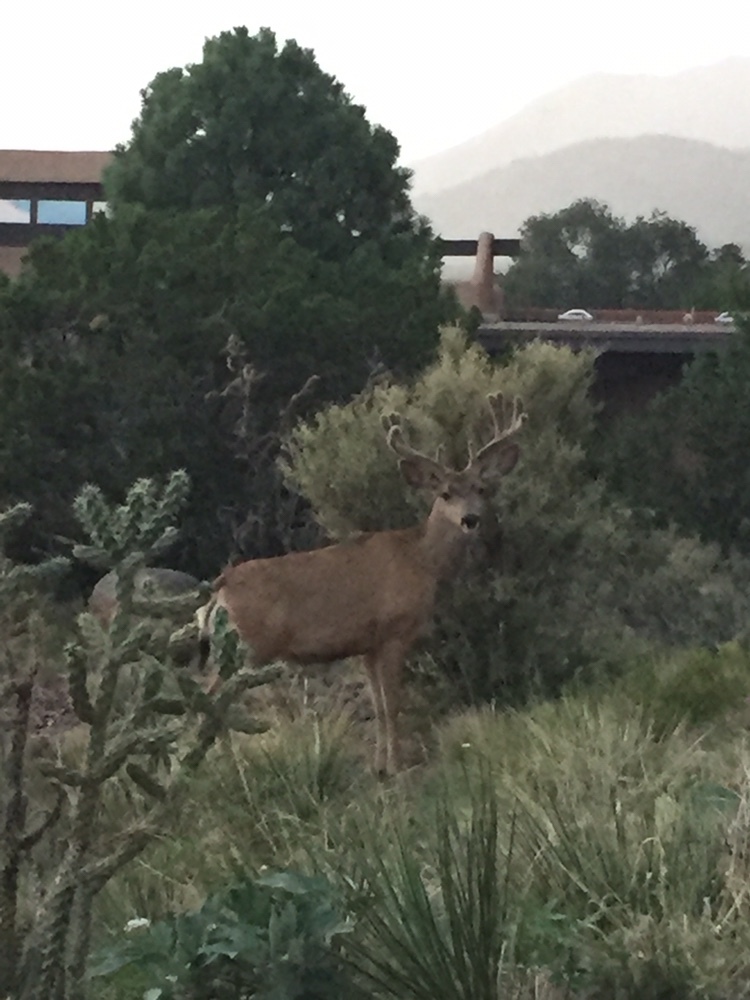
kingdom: Animalia
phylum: Chordata
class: Mammalia
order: Artiodactyla
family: Cervidae
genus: Odocoileus
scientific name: Odocoileus hemionus
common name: Mule deer
